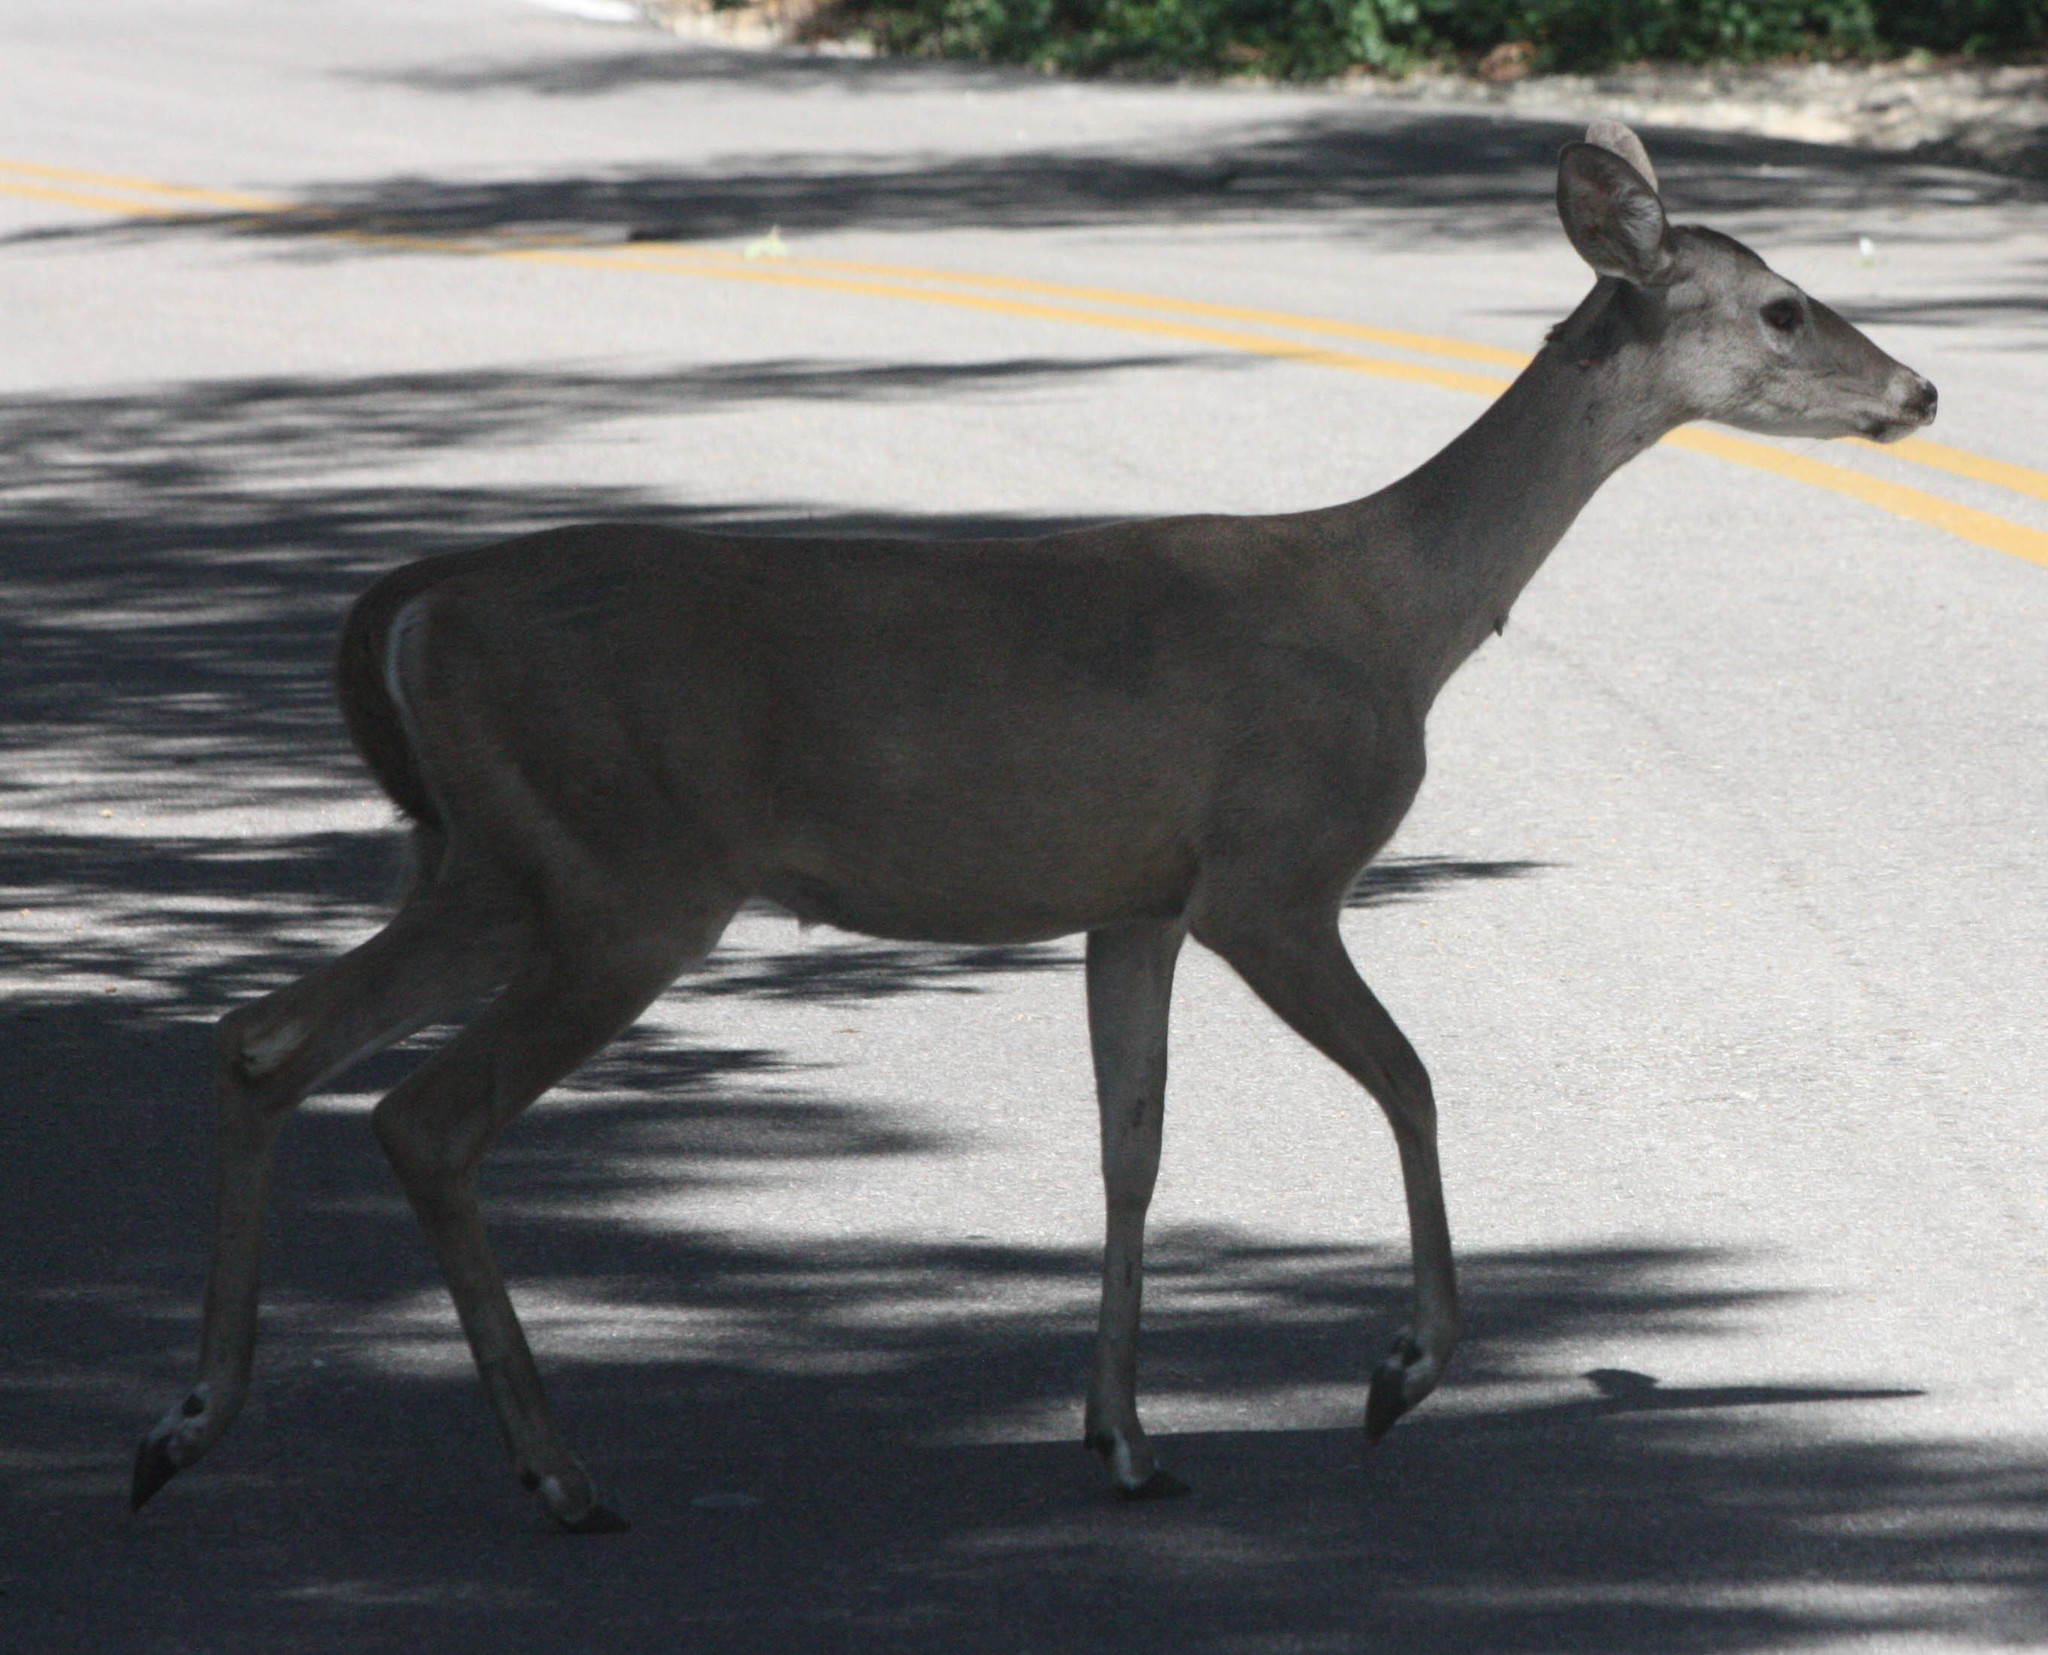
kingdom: Animalia
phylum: Chordata
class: Mammalia
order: Artiodactyla
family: Cervidae
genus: Odocoileus
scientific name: Odocoileus virginianus
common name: White-tailed deer
